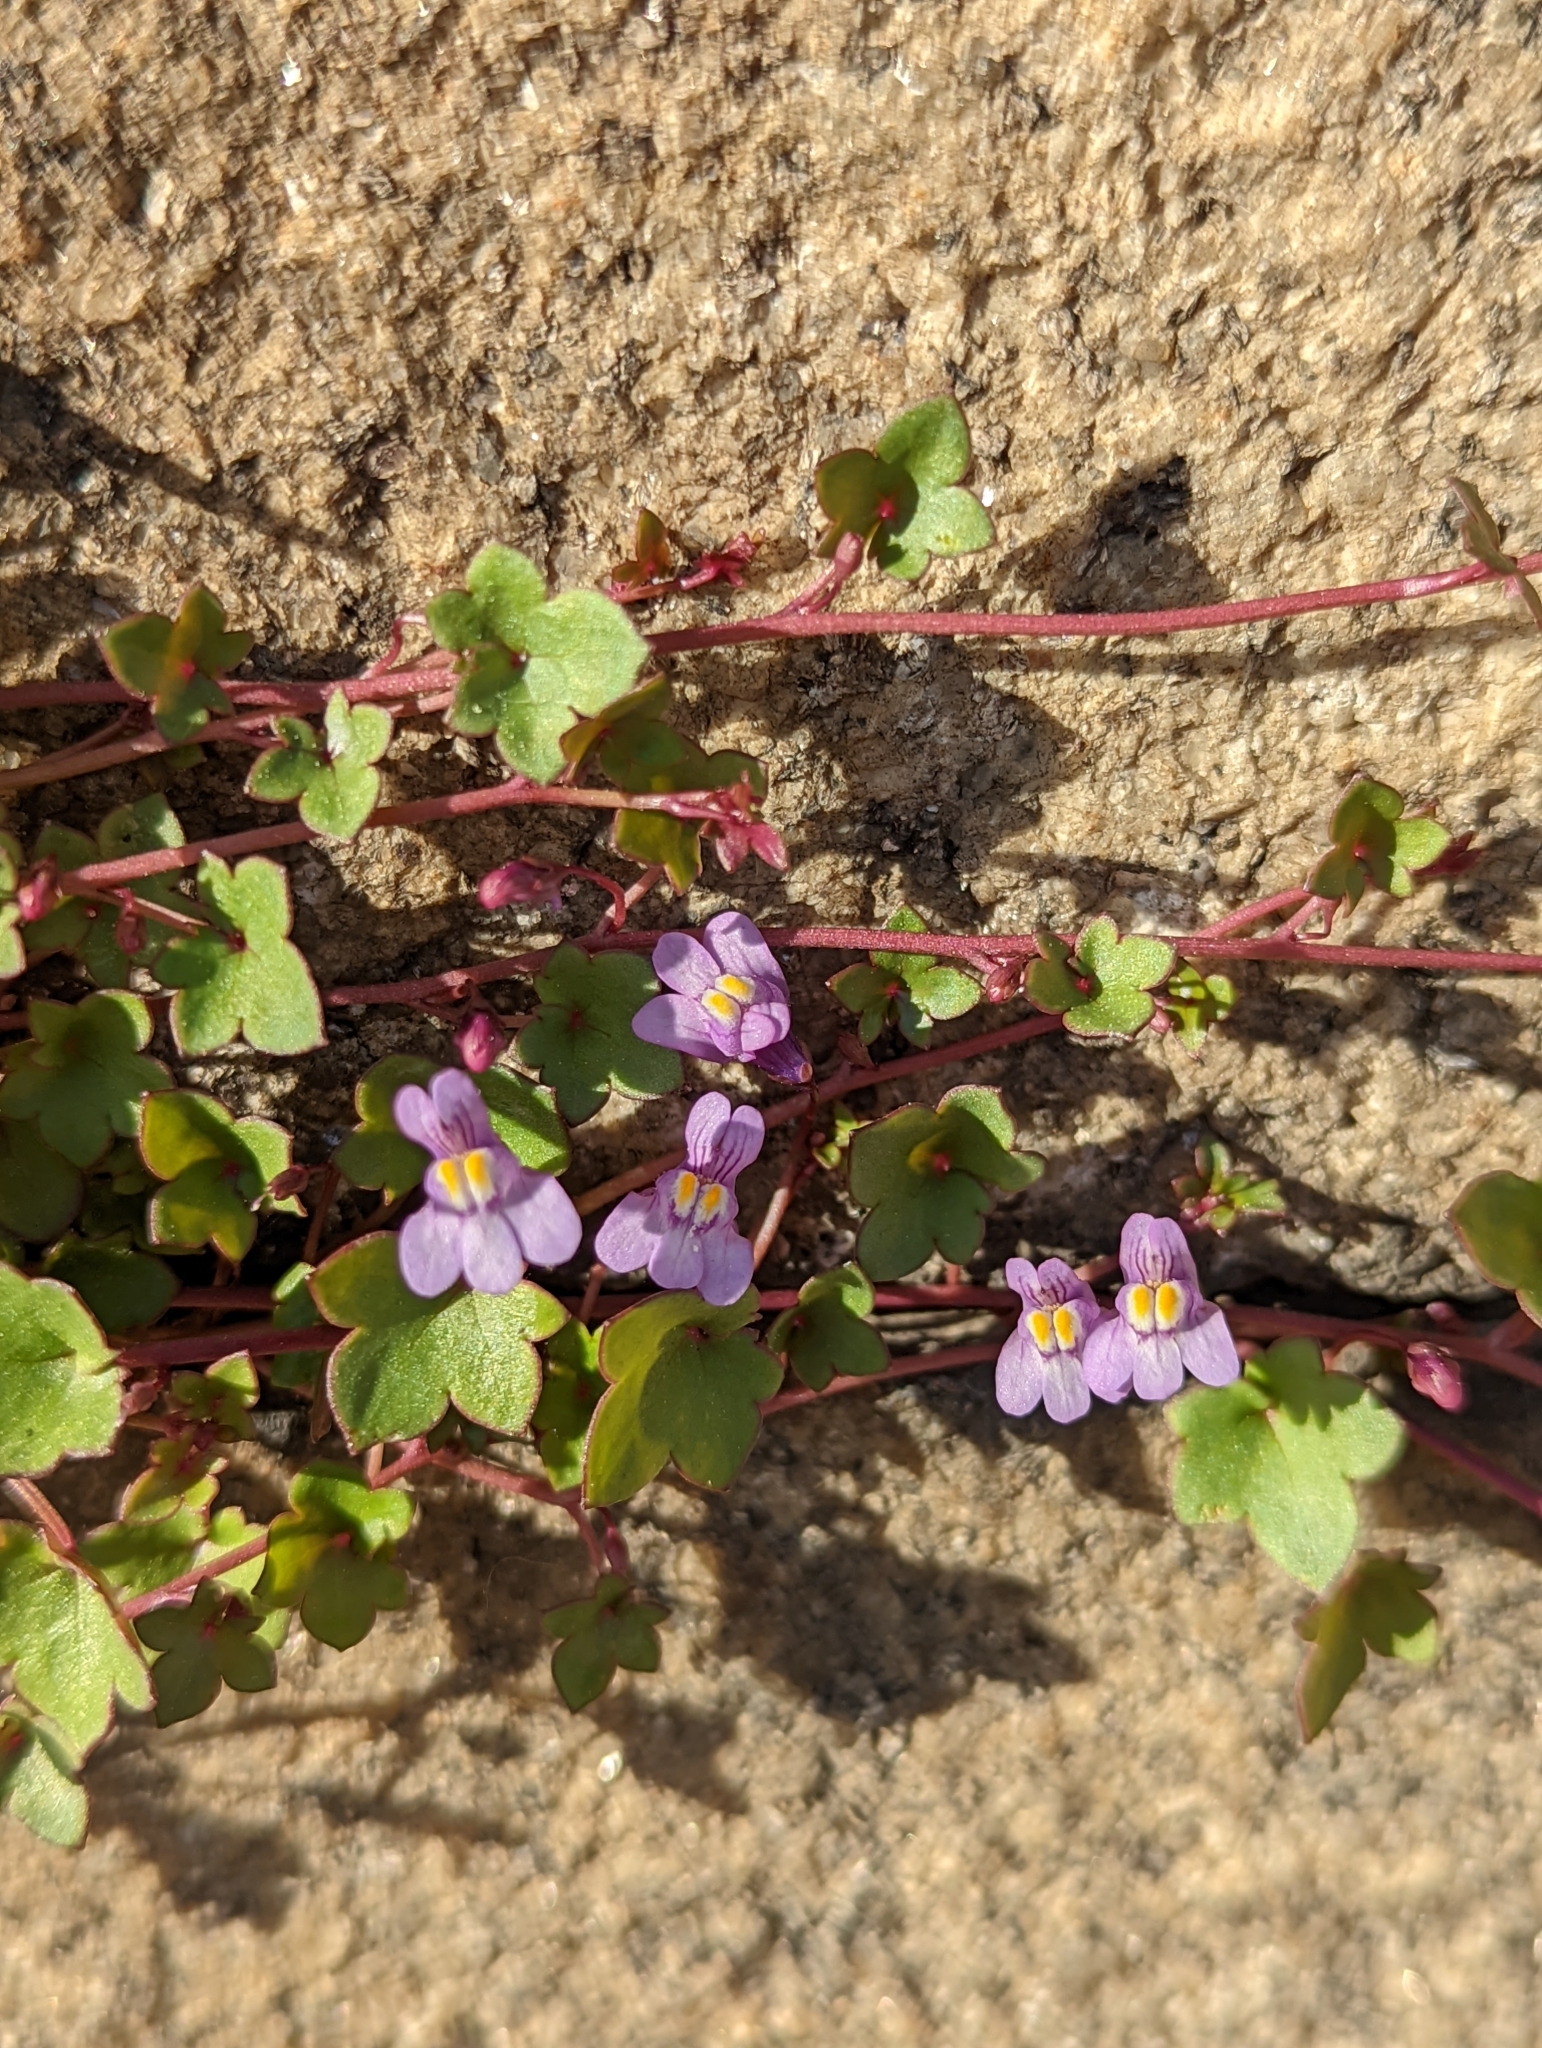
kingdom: Plantae
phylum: Tracheophyta
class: Magnoliopsida
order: Lamiales
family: Plantaginaceae
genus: Cymbalaria
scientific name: Cymbalaria muralis
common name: Ivy-leaved toadflax
